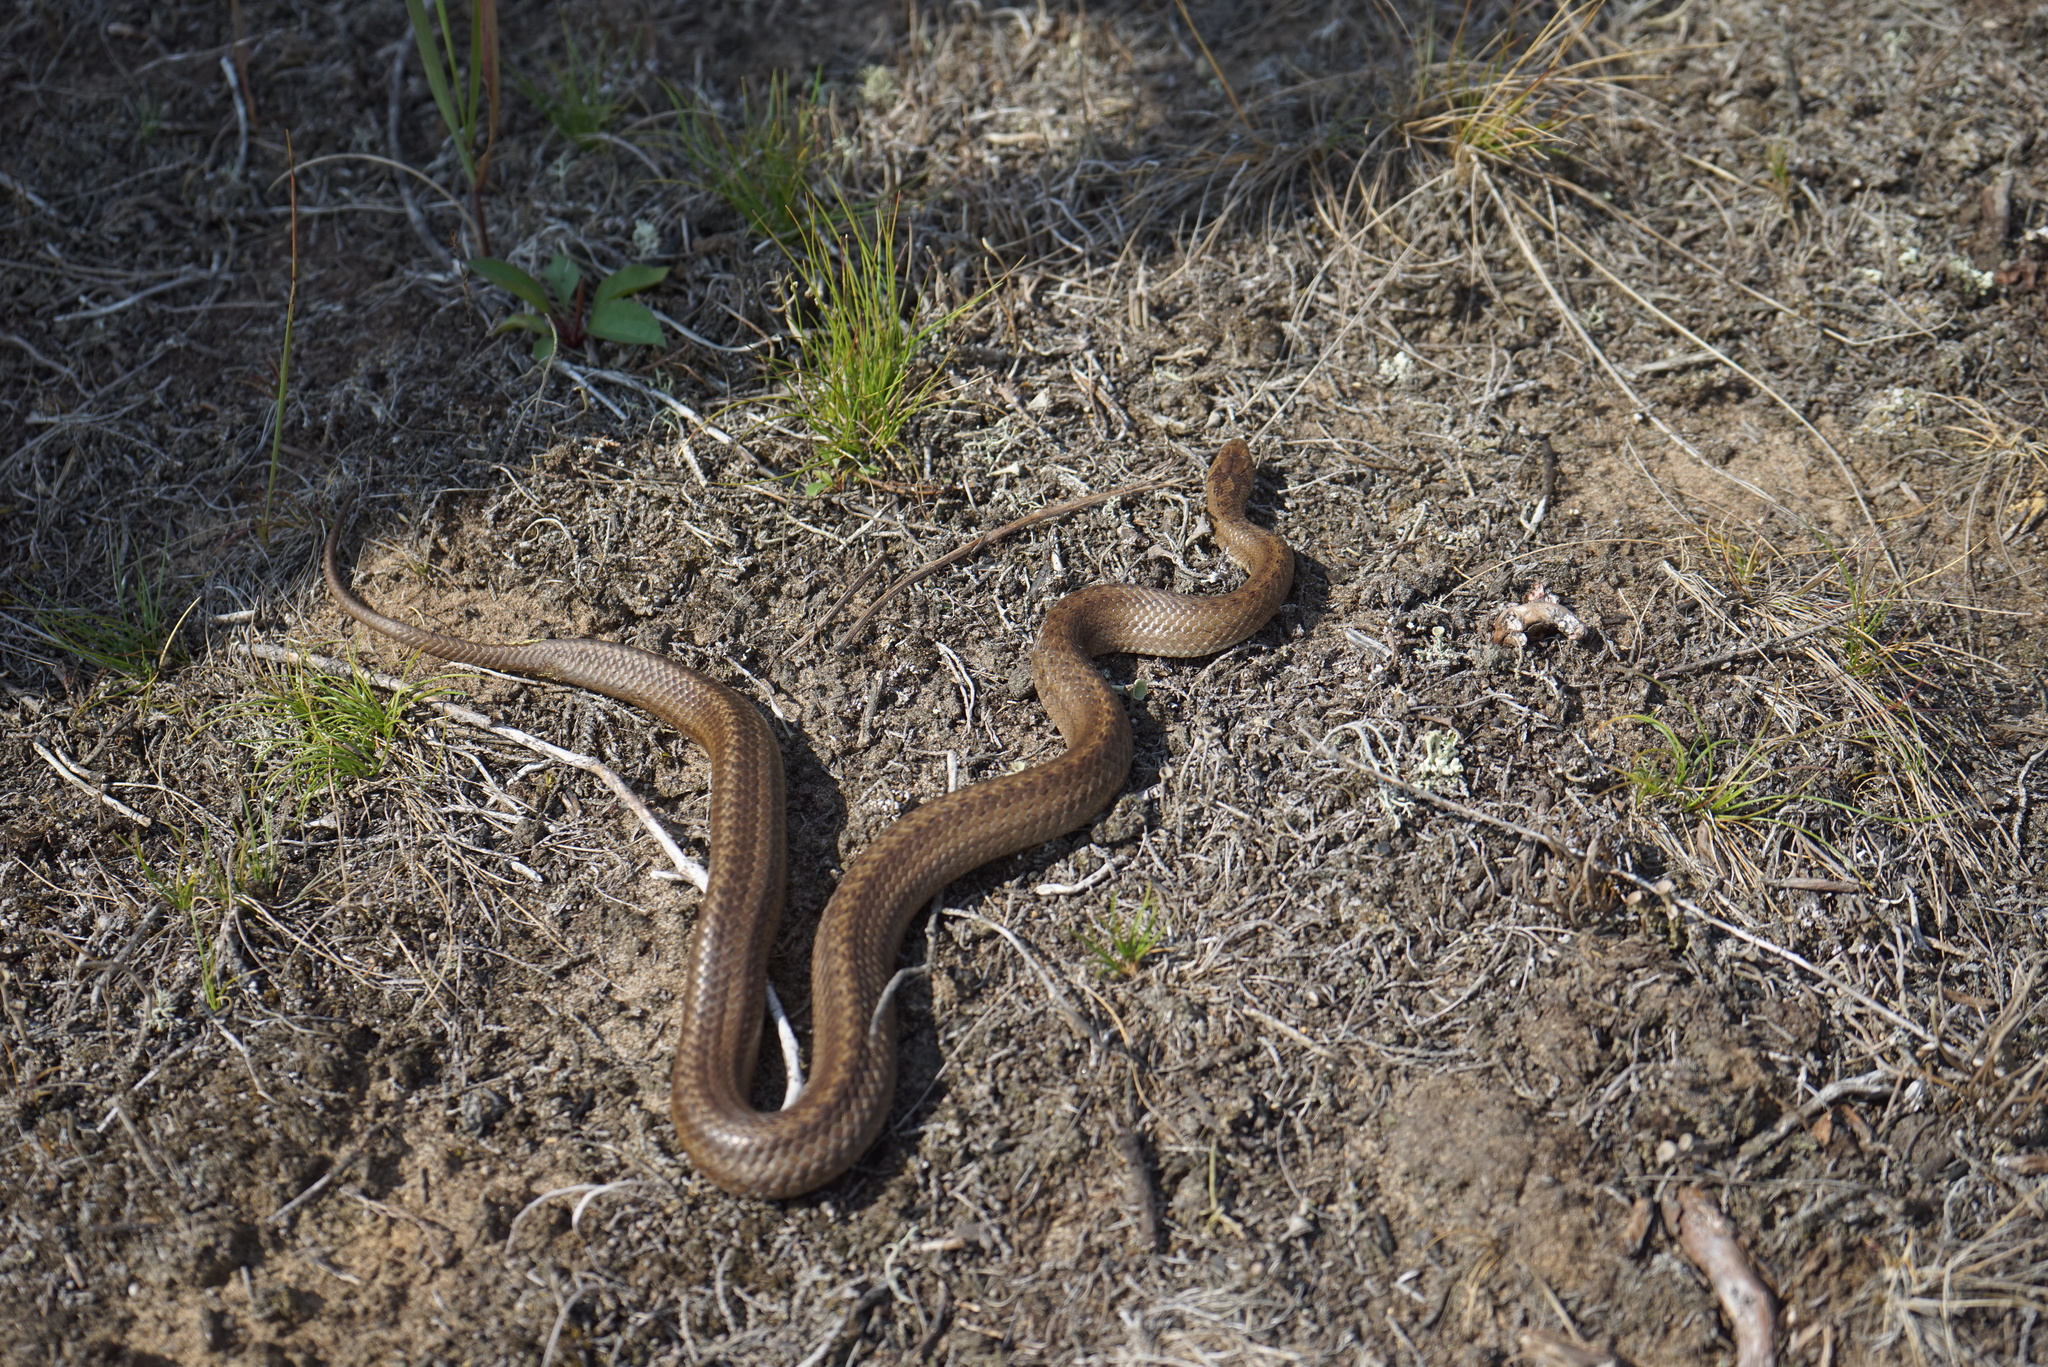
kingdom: Animalia
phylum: Chordata
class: Squamata
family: Colubridae
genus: Coronella
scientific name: Coronella austriaca
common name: Smooth snake
